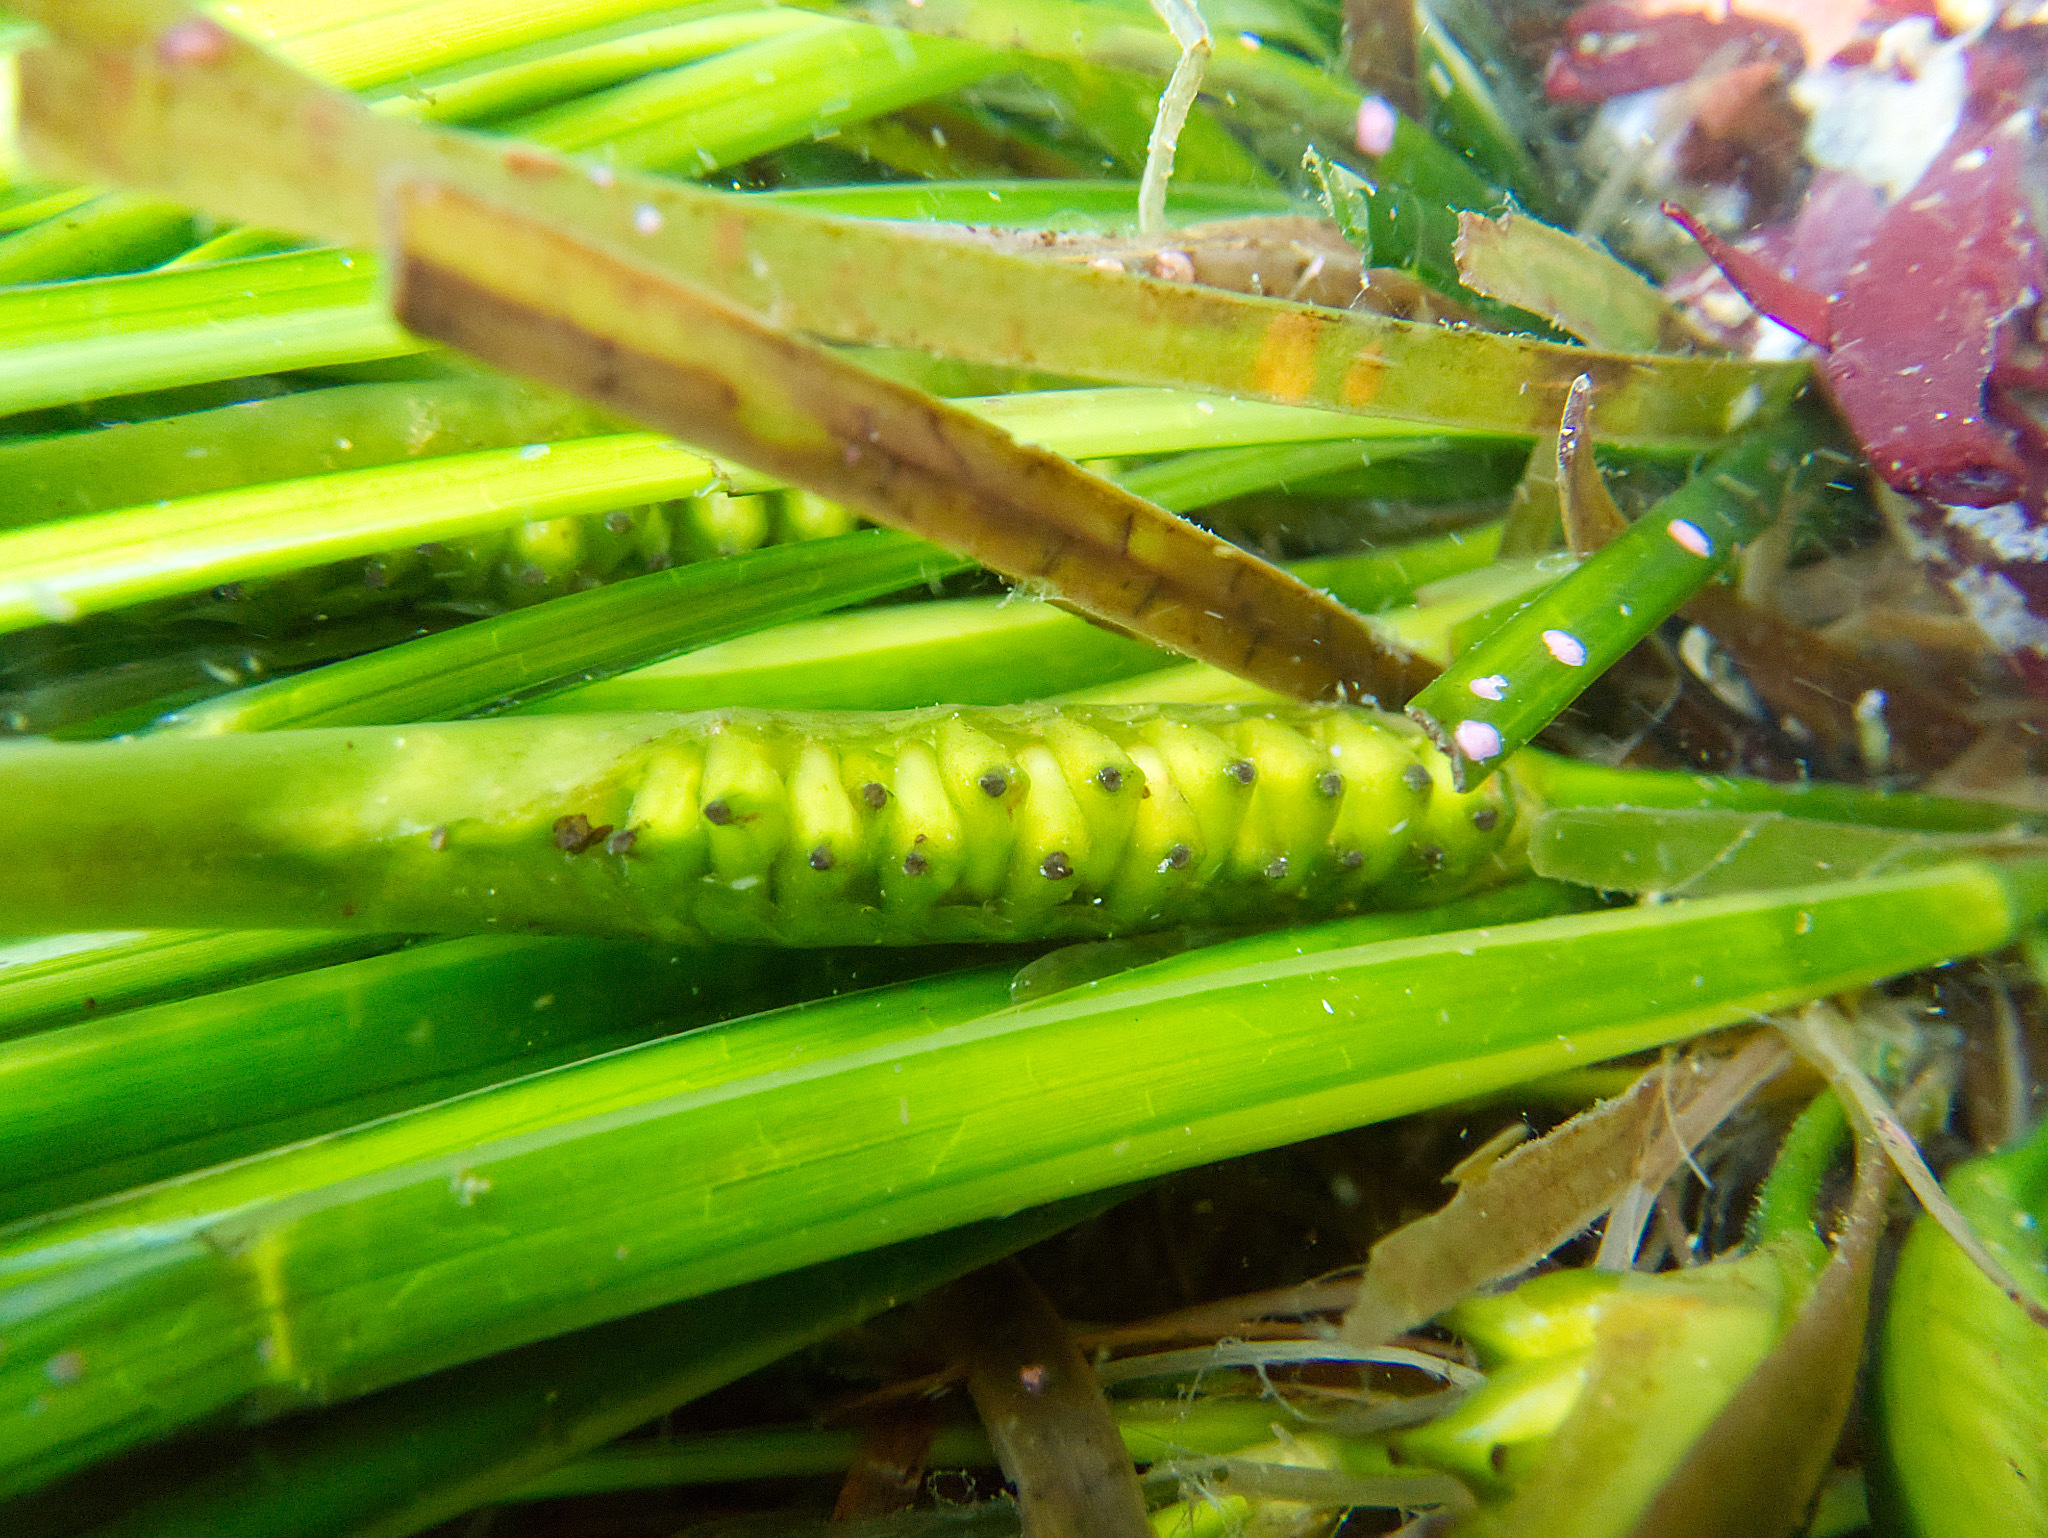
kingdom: Plantae
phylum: Tracheophyta
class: Liliopsida
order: Alismatales
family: Zosteraceae
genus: Phyllospadix
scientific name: Phyllospadix scouleri
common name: Species code: ps
